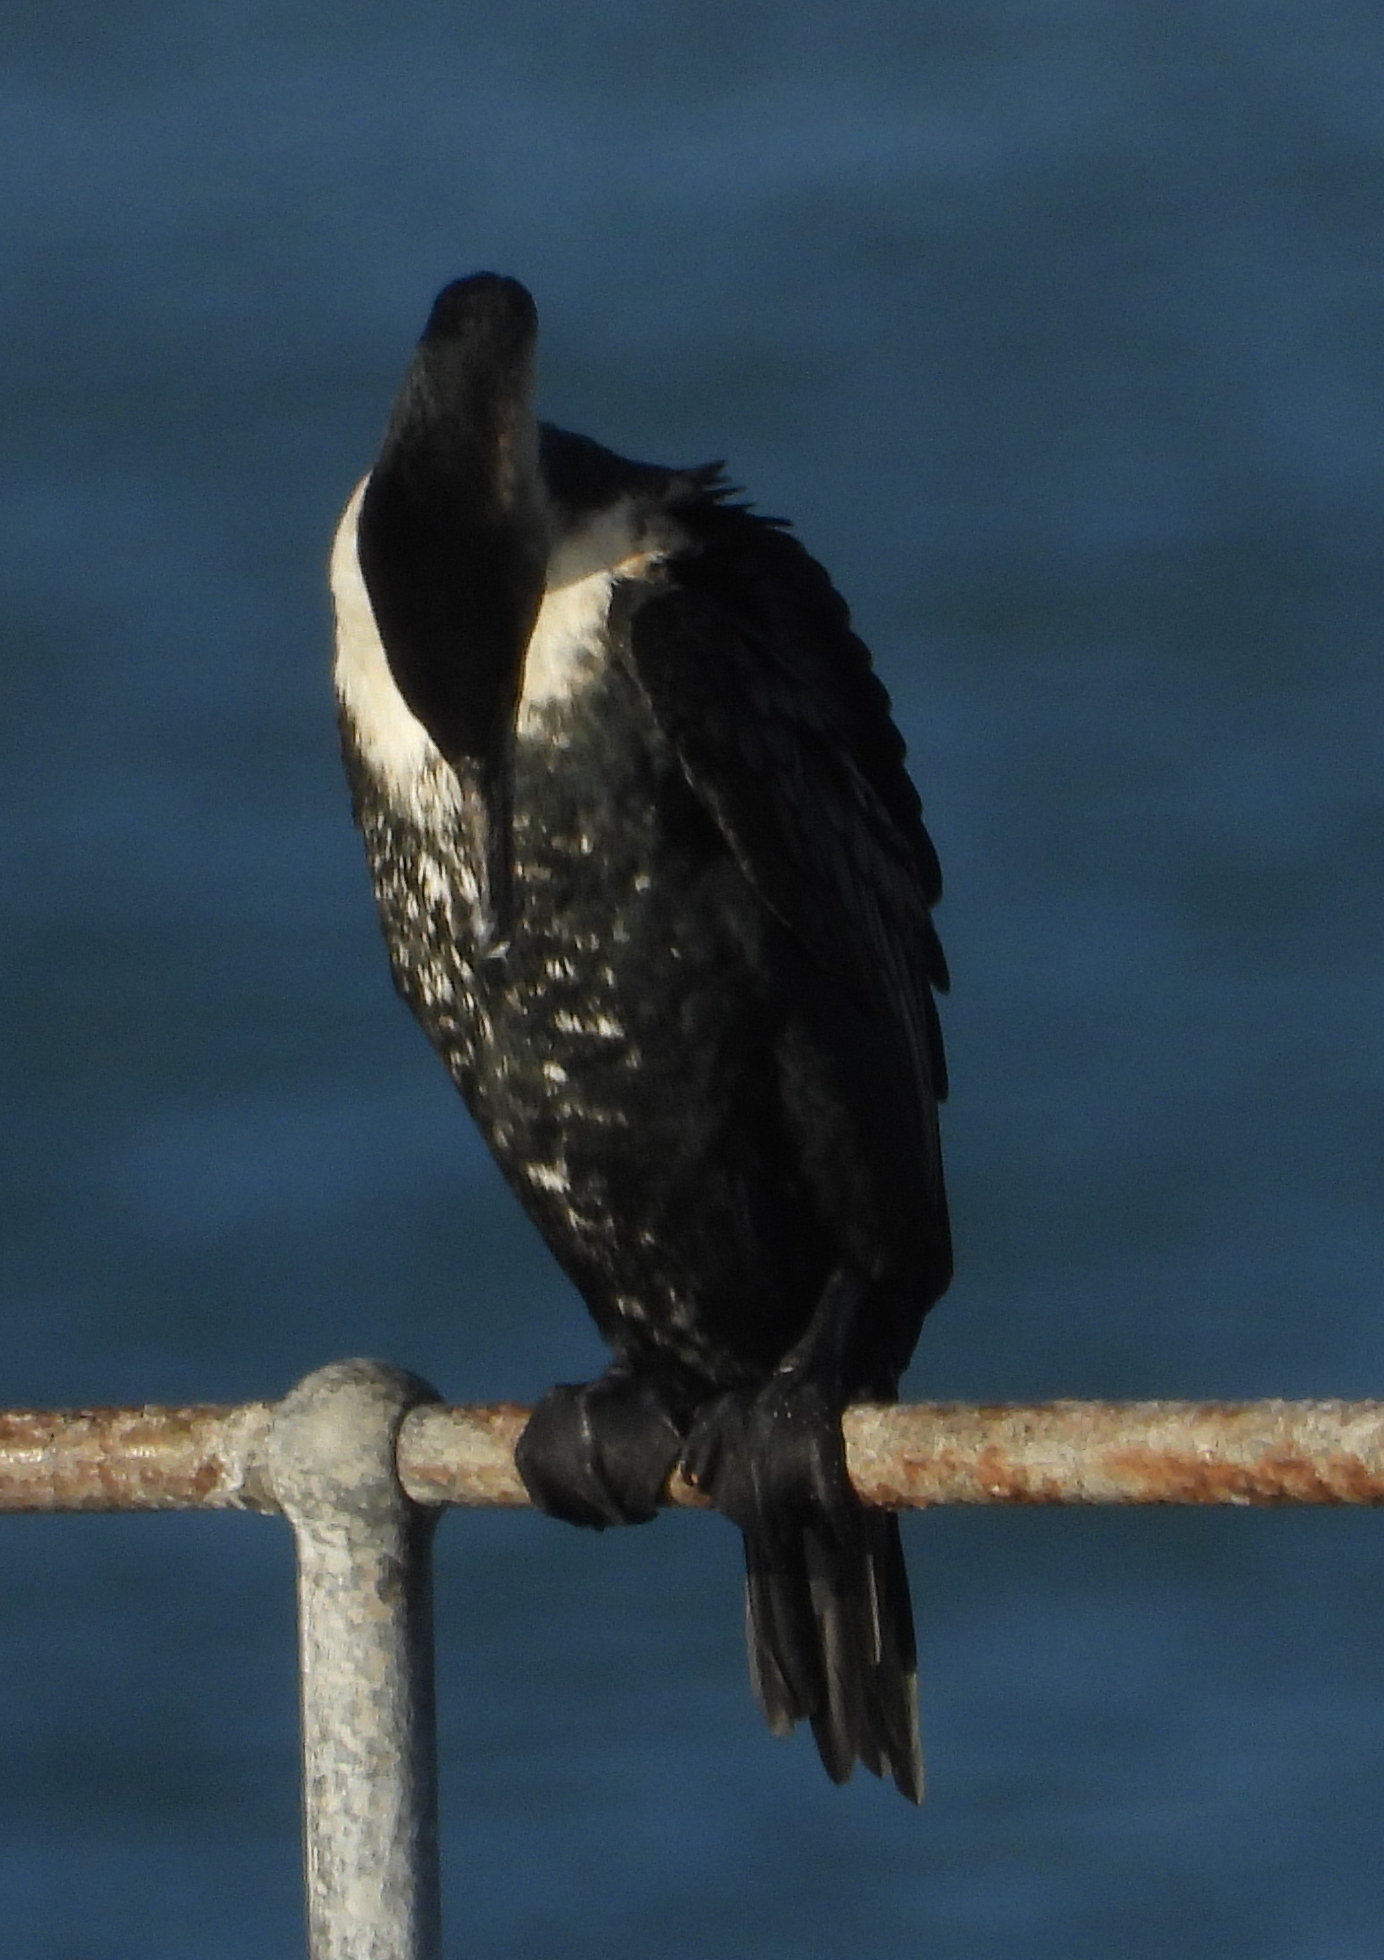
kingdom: Animalia
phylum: Chordata
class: Aves
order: Suliformes
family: Phalacrocoracidae
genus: Phalacrocorax
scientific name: Phalacrocorax carbo
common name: Great cormorant
